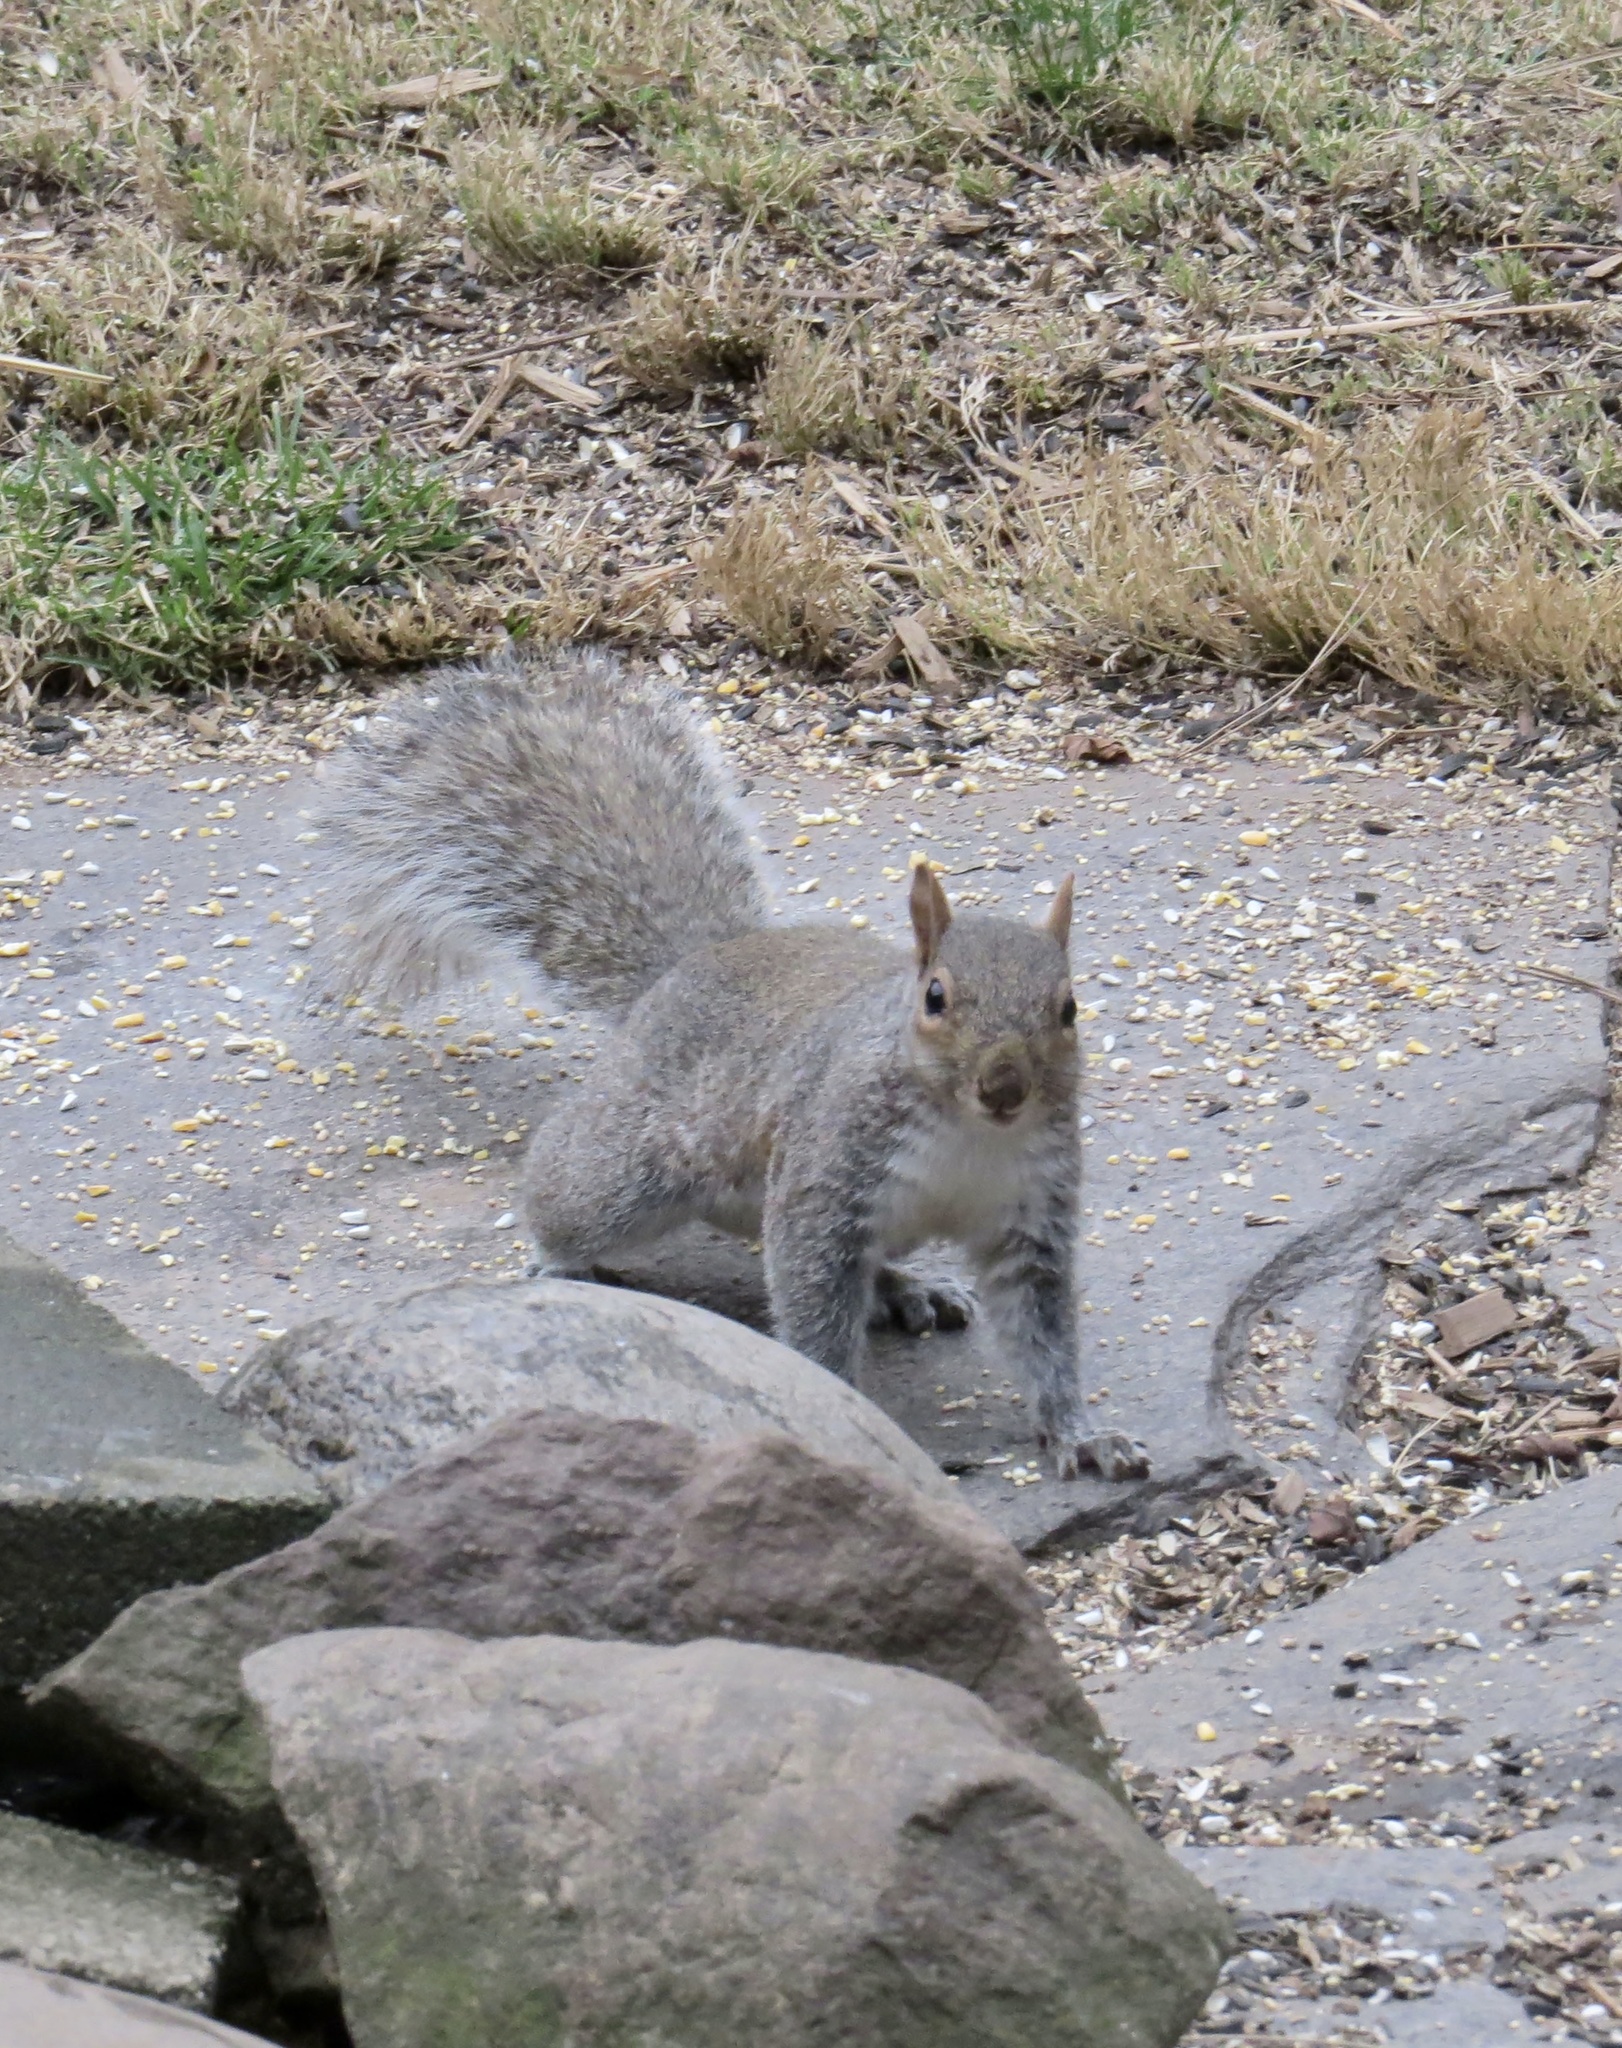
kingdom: Animalia
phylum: Chordata
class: Mammalia
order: Rodentia
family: Sciuridae
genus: Sciurus
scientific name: Sciurus carolinensis
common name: Eastern gray squirrel
